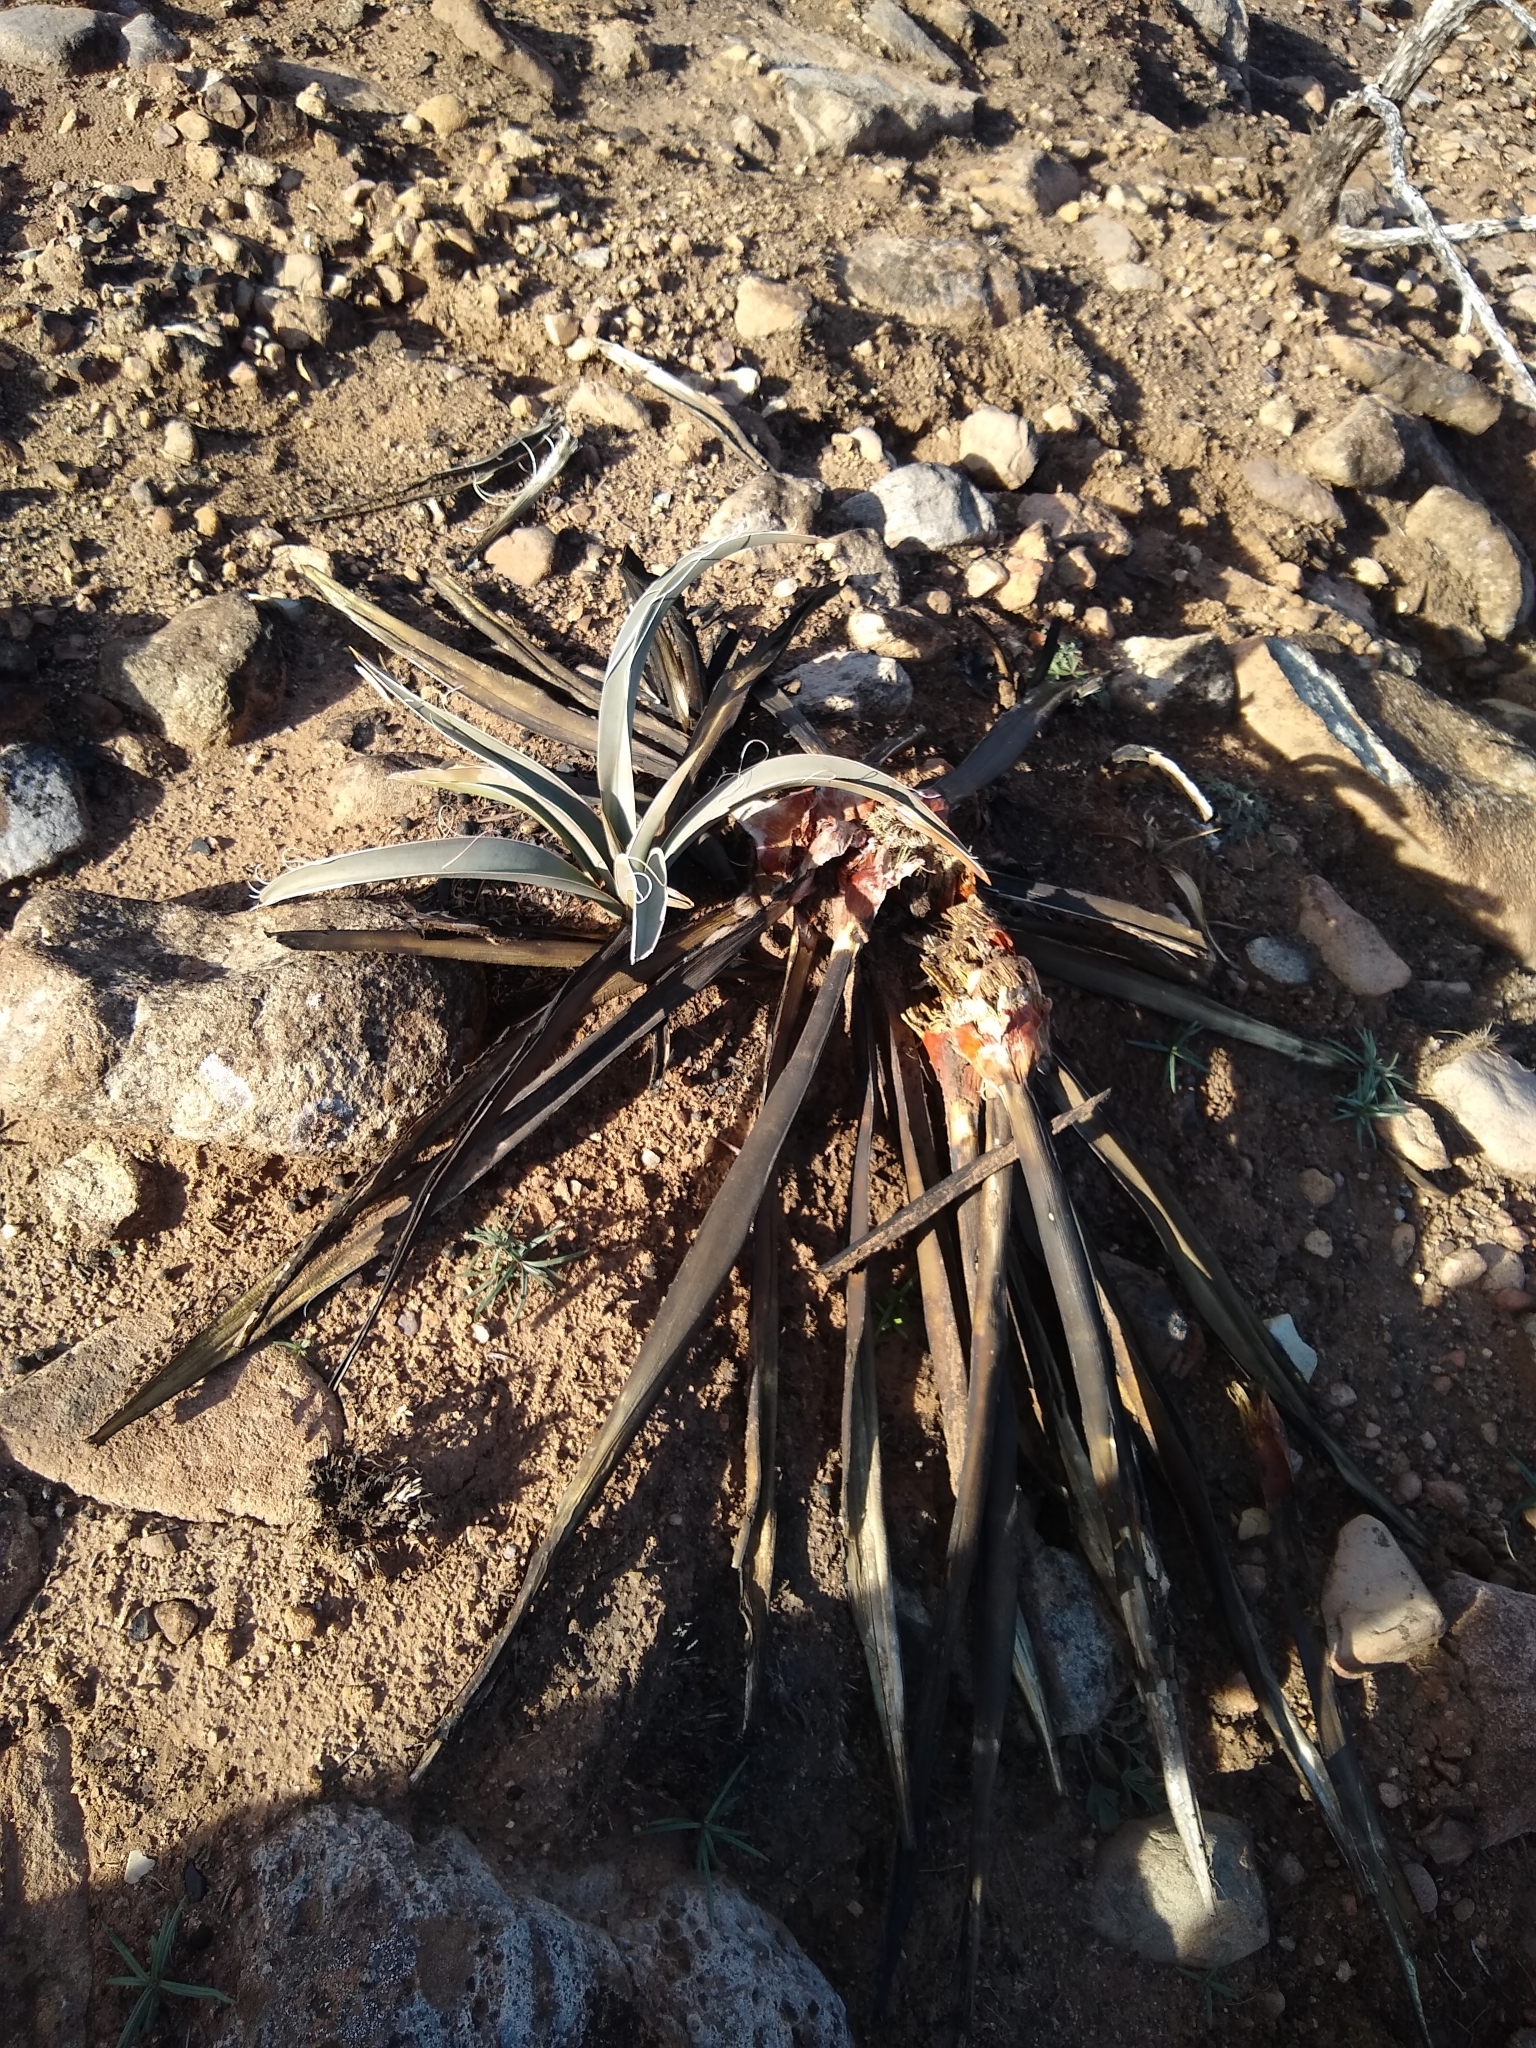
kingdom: Plantae
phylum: Tracheophyta
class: Liliopsida
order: Asparagales
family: Asparagaceae
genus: Yucca
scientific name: Yucca baccata
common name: Banana yucca
